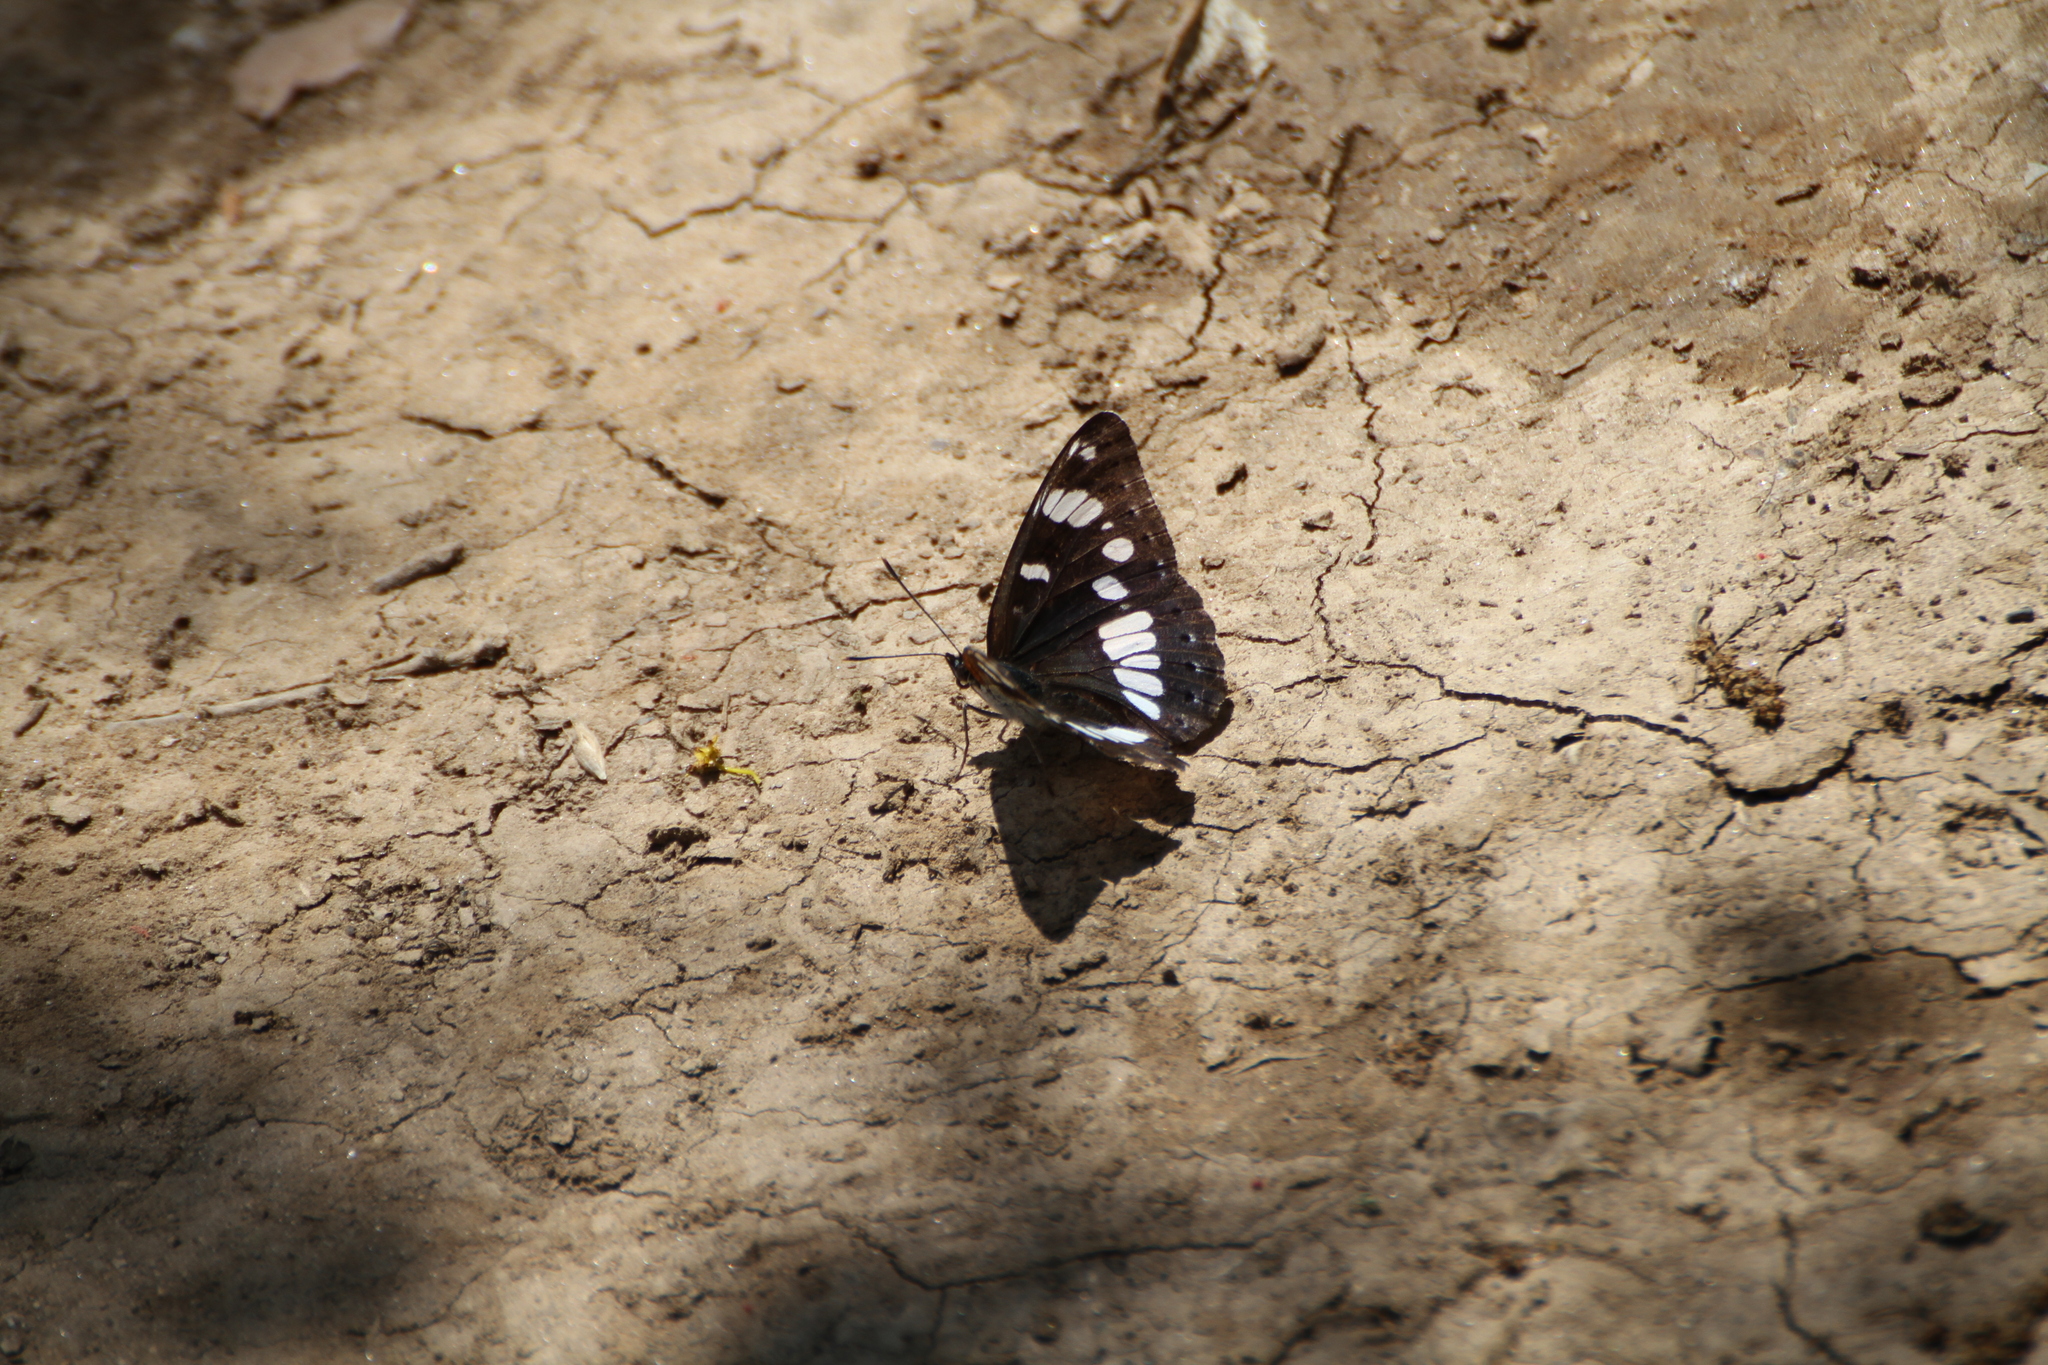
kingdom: Animalia
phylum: Arthropoda
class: Insecta
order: Lepidoptera
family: Nymphalidae
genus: Limenitis
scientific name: Limenitis reducta
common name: Southern white admiral
